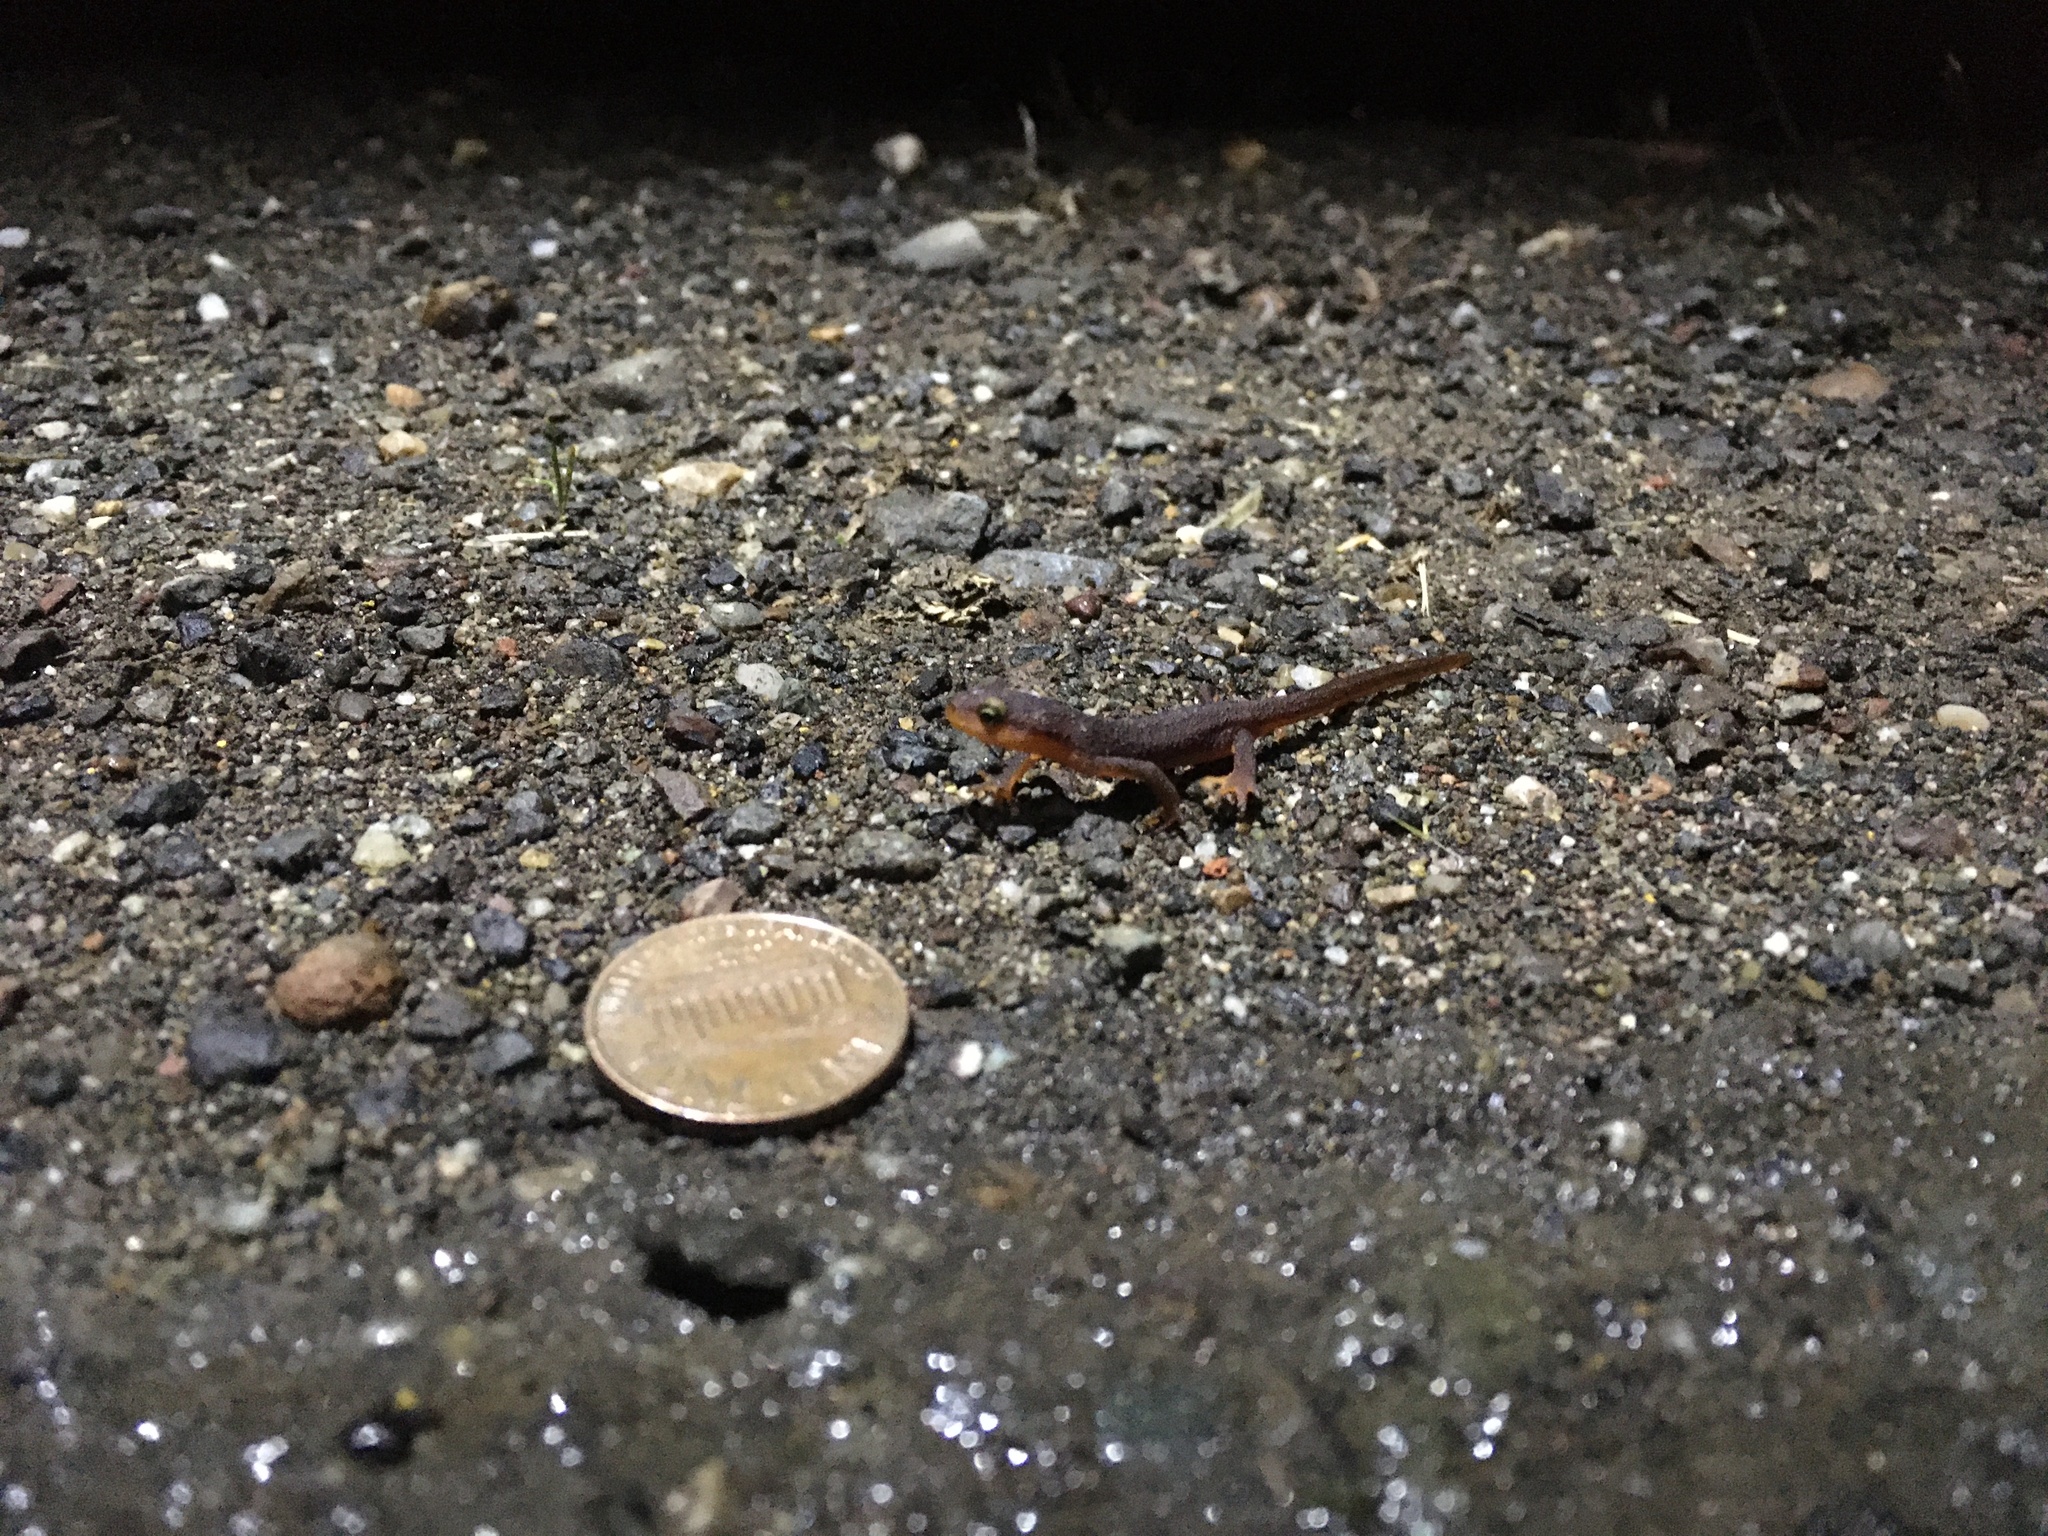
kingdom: Animalia
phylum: Chordata
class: Amphibia
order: Caudata
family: Salamandridae
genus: Taricha
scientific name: Taricha torosa
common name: California newt
